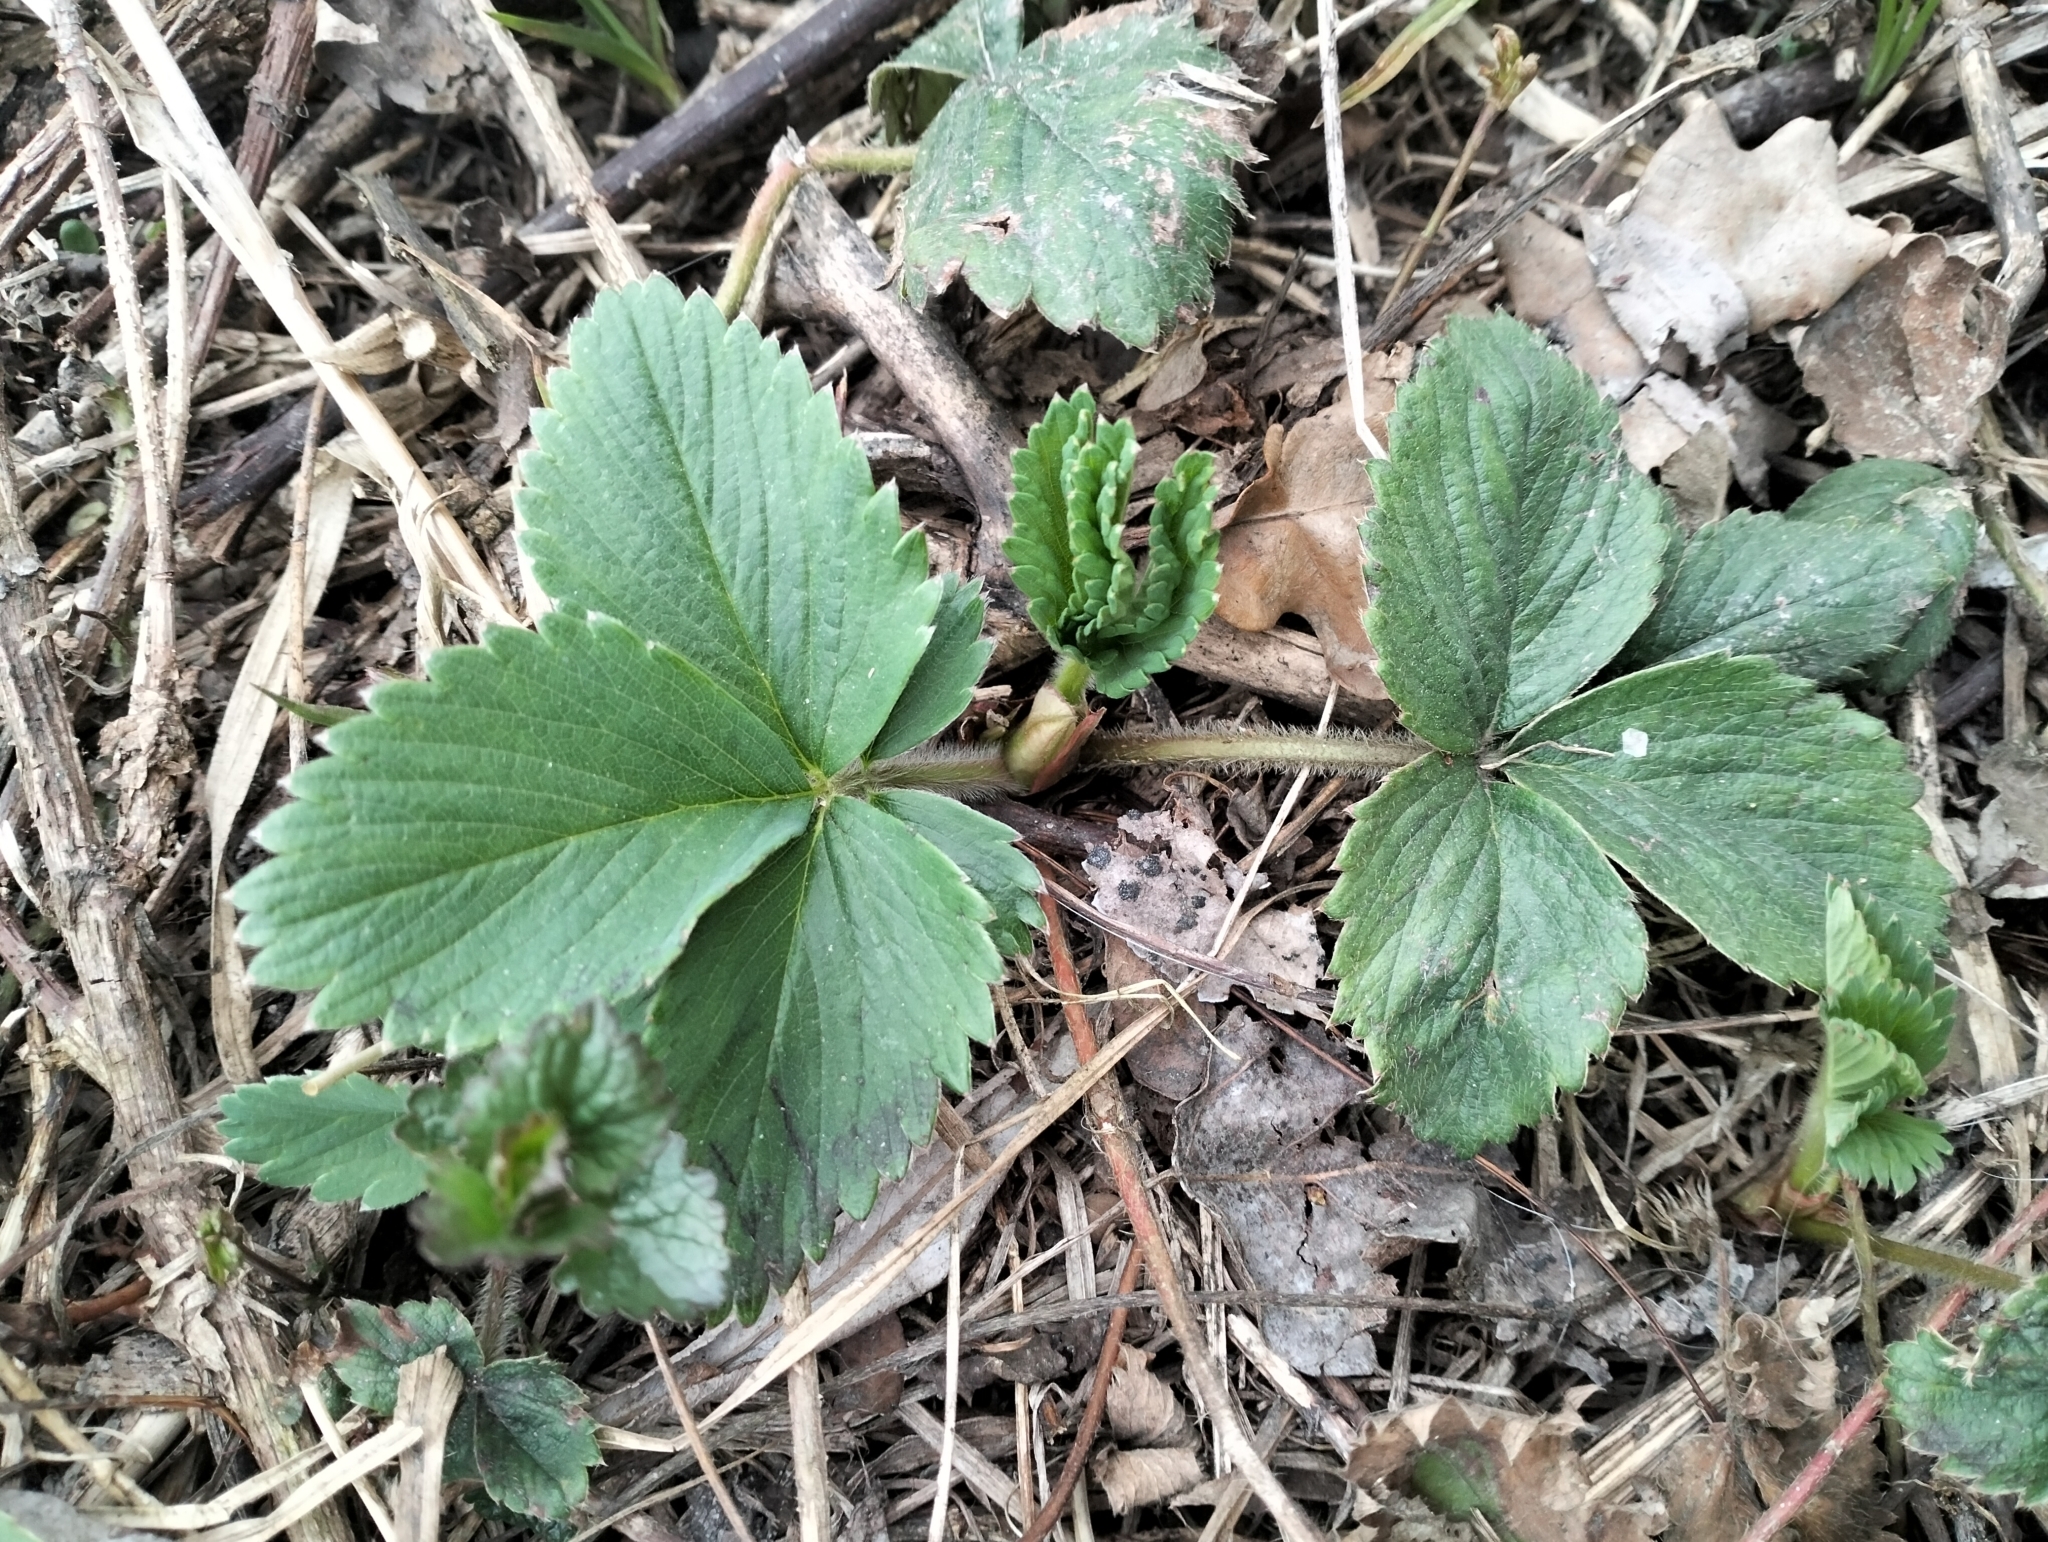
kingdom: Plantae
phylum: Tracheophyta
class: Magnoliopsida
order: Rosales
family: Rosaceae
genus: Fragaria
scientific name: Fragaria ananassa
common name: Garden strawberry
